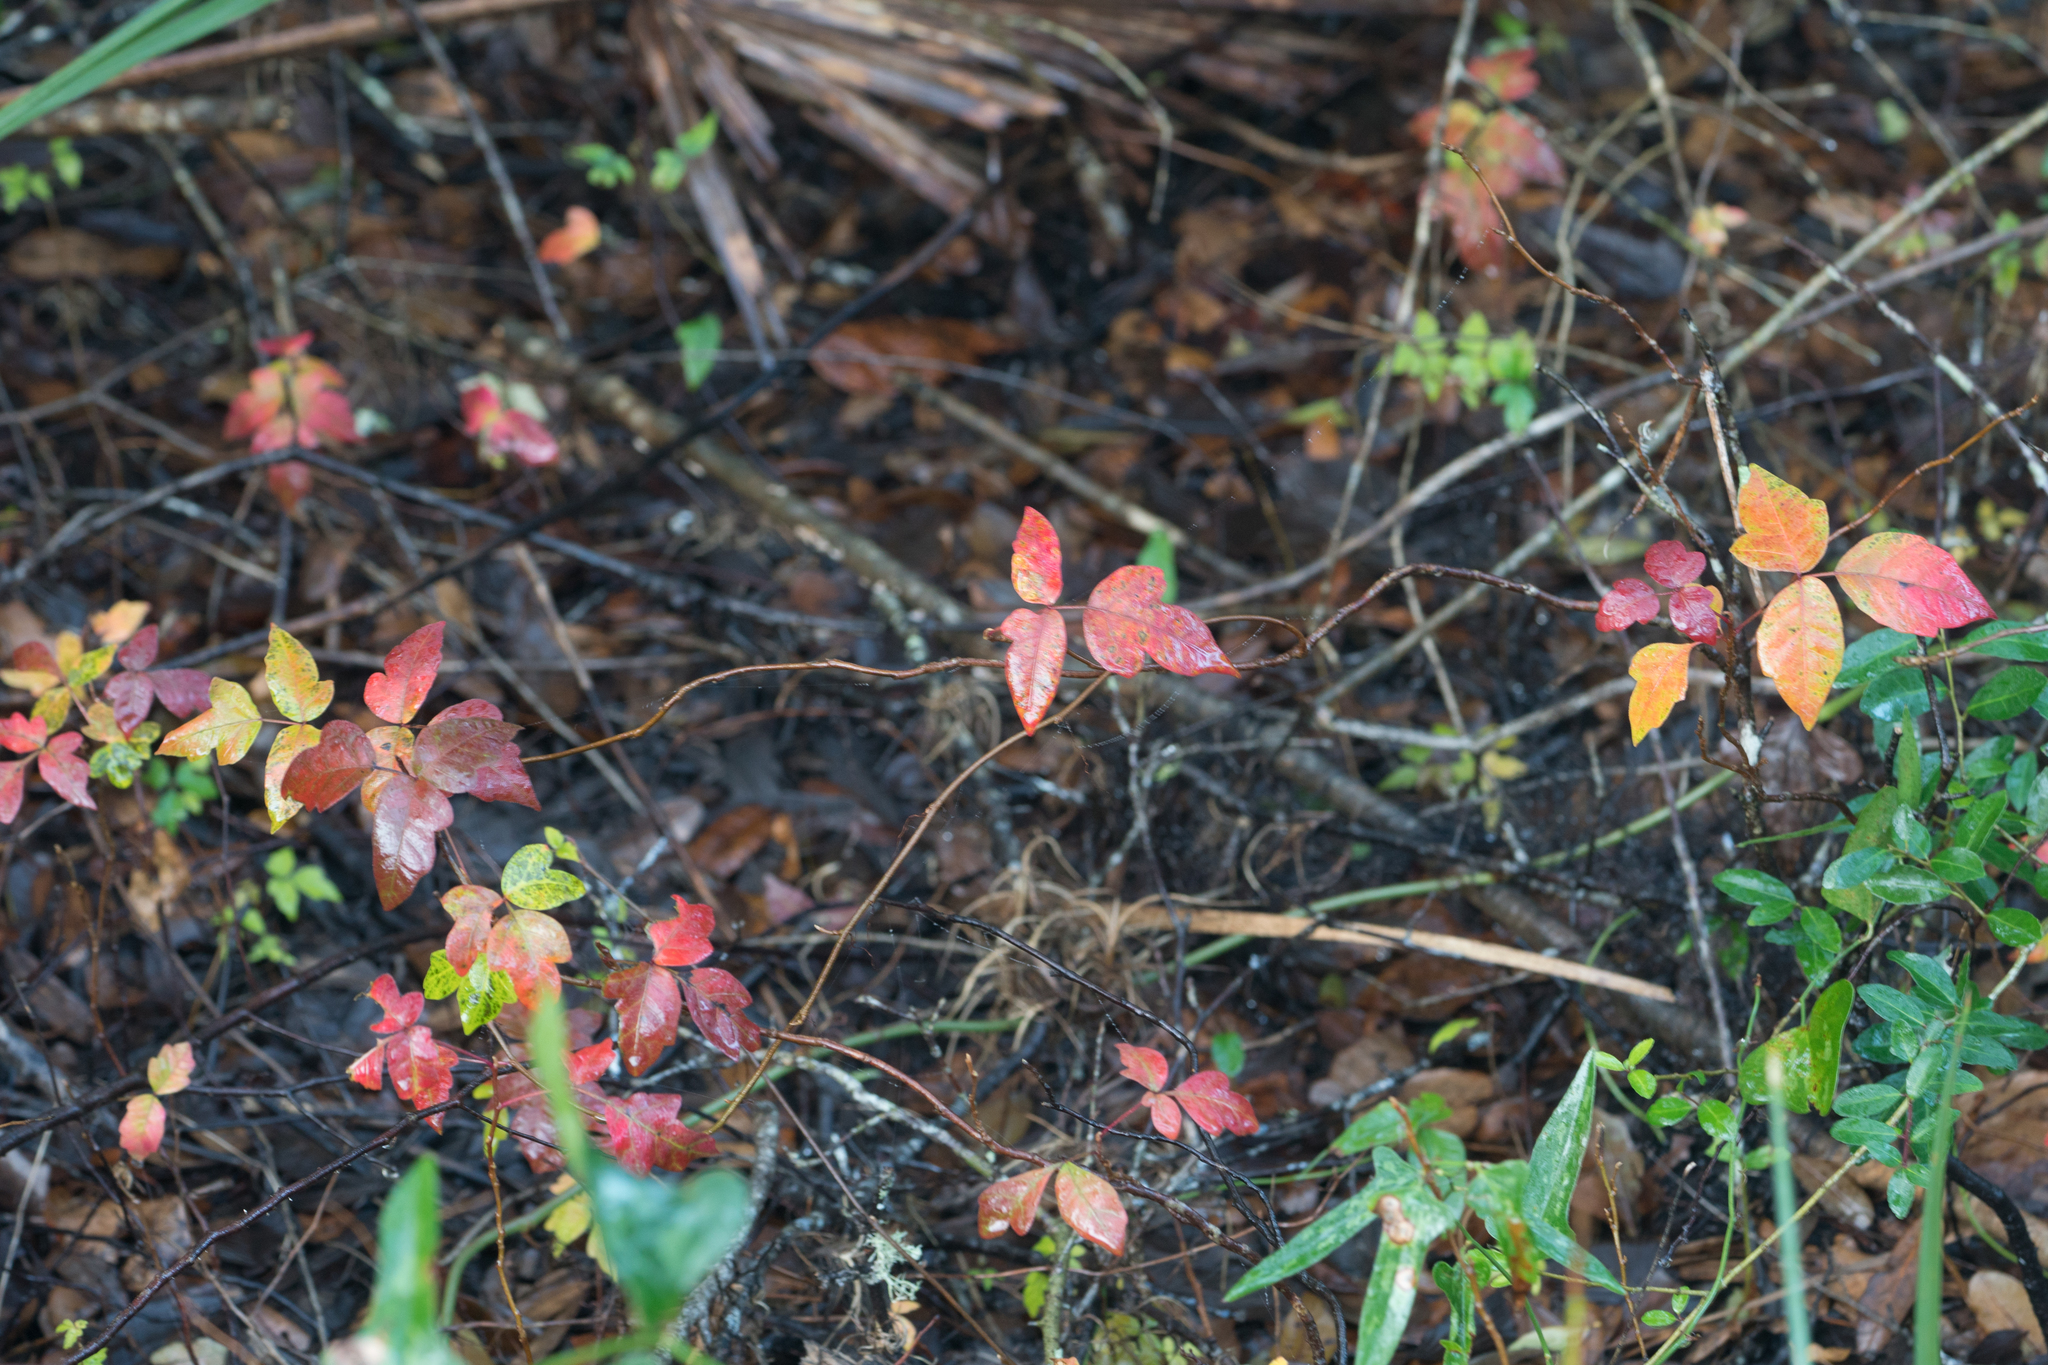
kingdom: Plantae
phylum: Tracheophyta
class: Magnoliopsida
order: Sapindales
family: Anacardiaceae
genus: Toxicodendron
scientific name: Toxicodendron radicans
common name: Poison ivy
